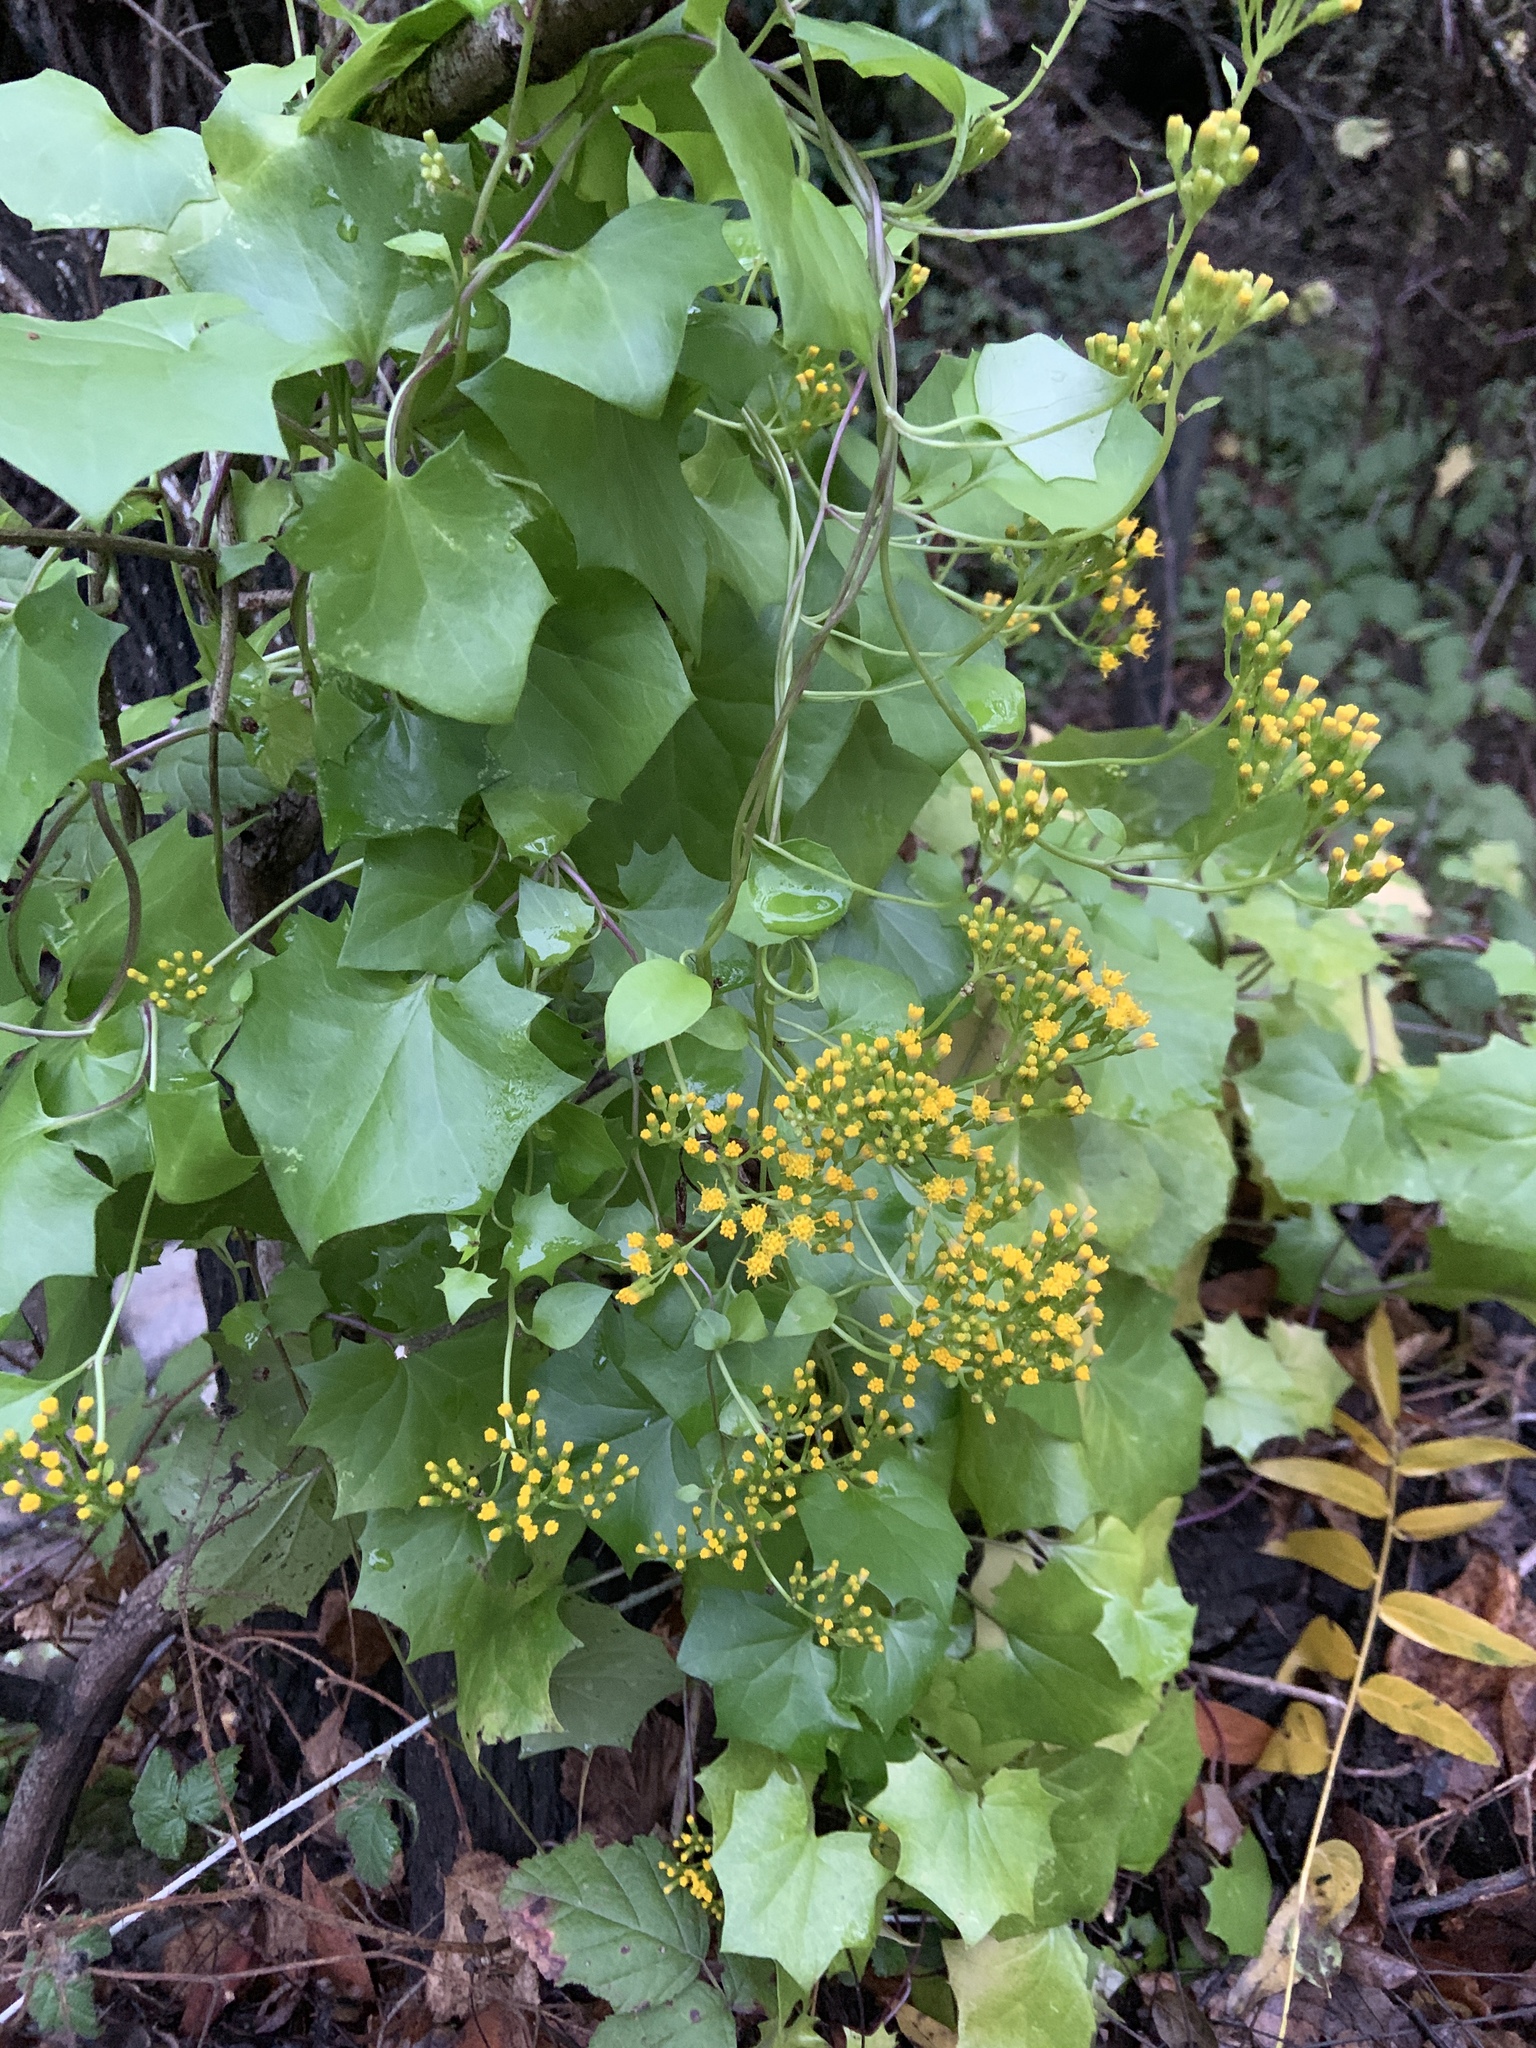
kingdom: Plantae
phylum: Tracheophyta
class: Magnoliopsida
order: Asterales
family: Asteraceae
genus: Delairea
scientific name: Delairea odorata
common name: Cape-ivy
